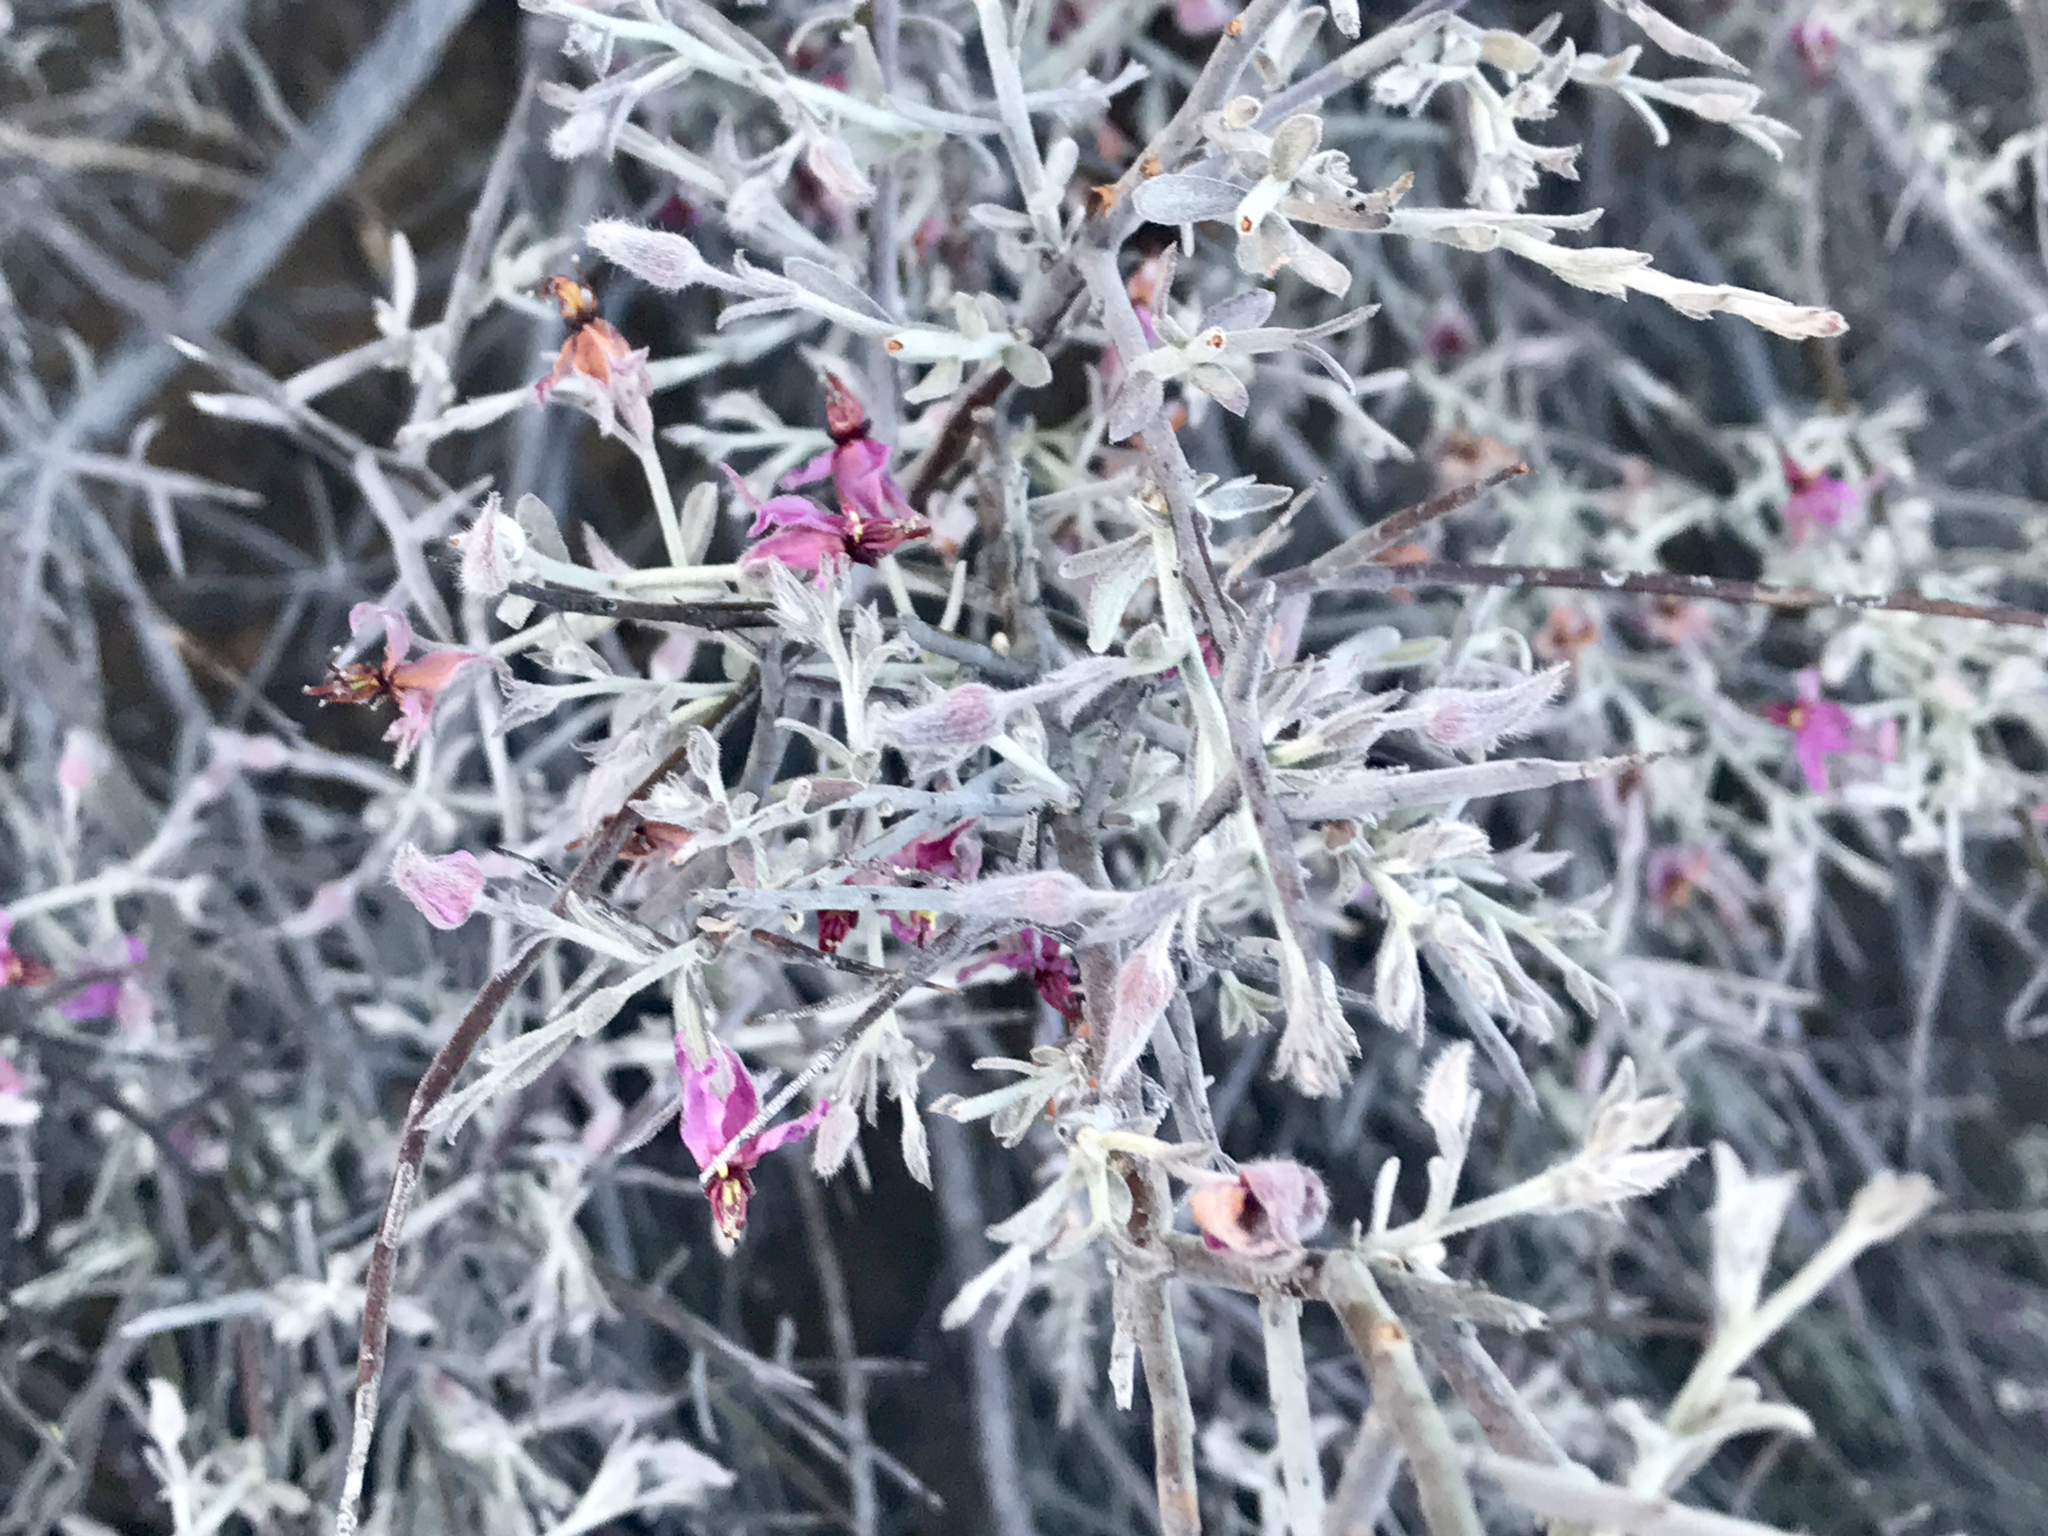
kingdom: Plantae
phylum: Tracheophyta
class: Magnoliopsida
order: Zygophyllales
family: Krameriaceae
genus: Krameria
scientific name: Krameria bicolor
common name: White ratany
